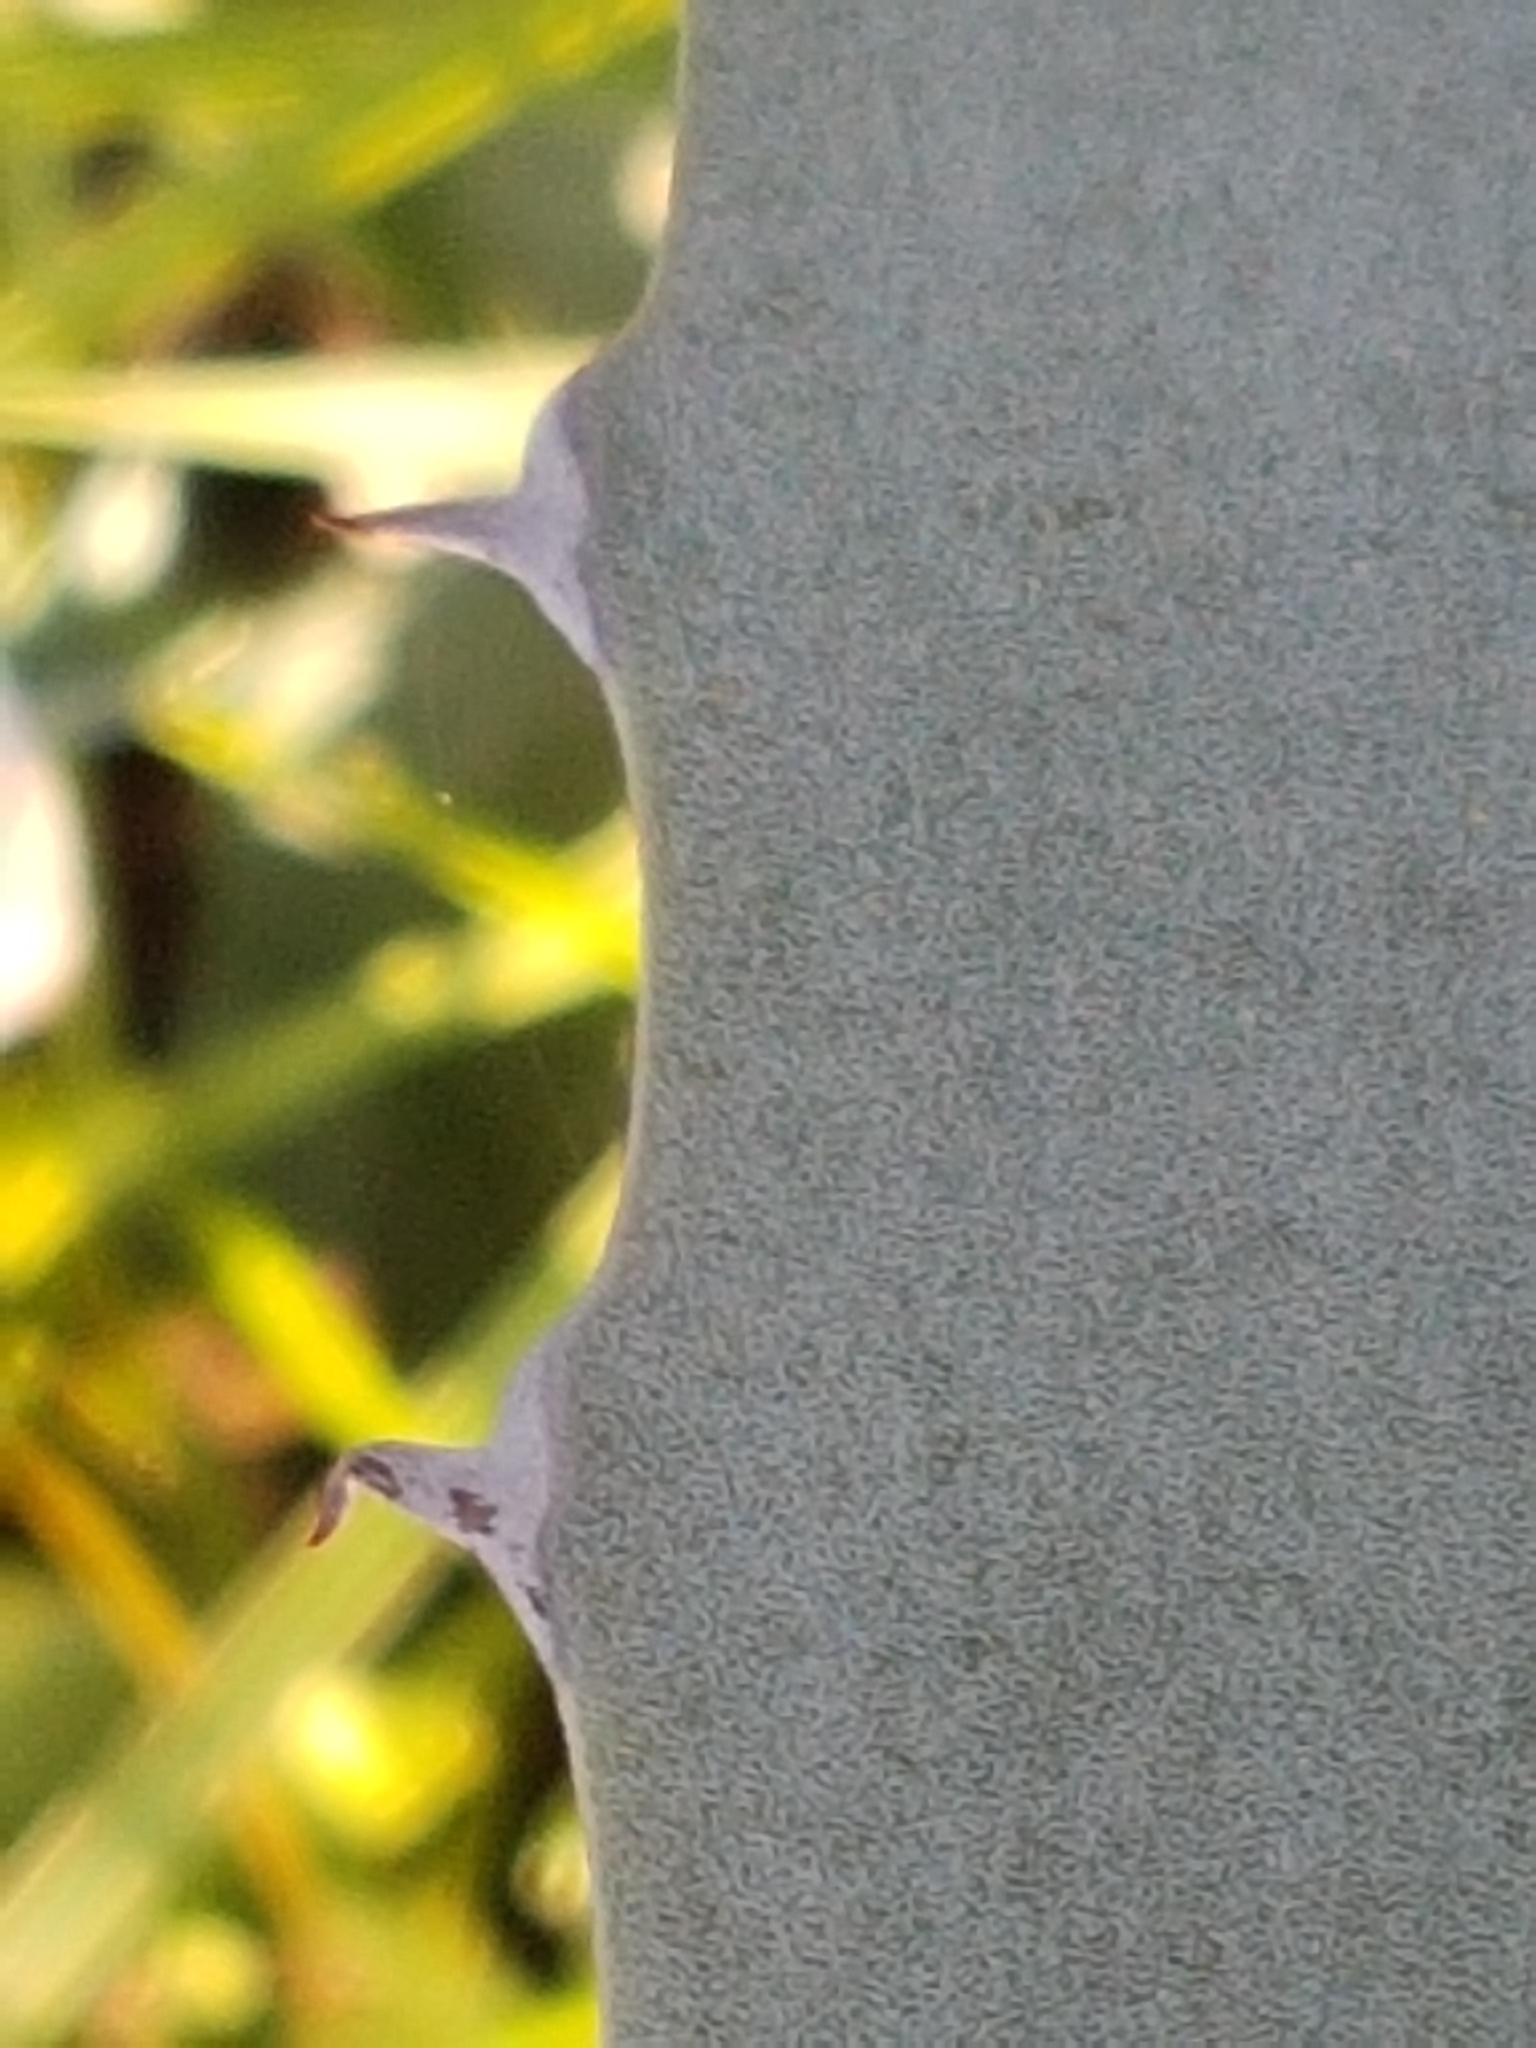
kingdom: Plantae
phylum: Tracheophyta
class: Liliopsida
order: Asparagales
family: Asparagaceae
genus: Agave
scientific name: Agave americana
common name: Centuryplant
